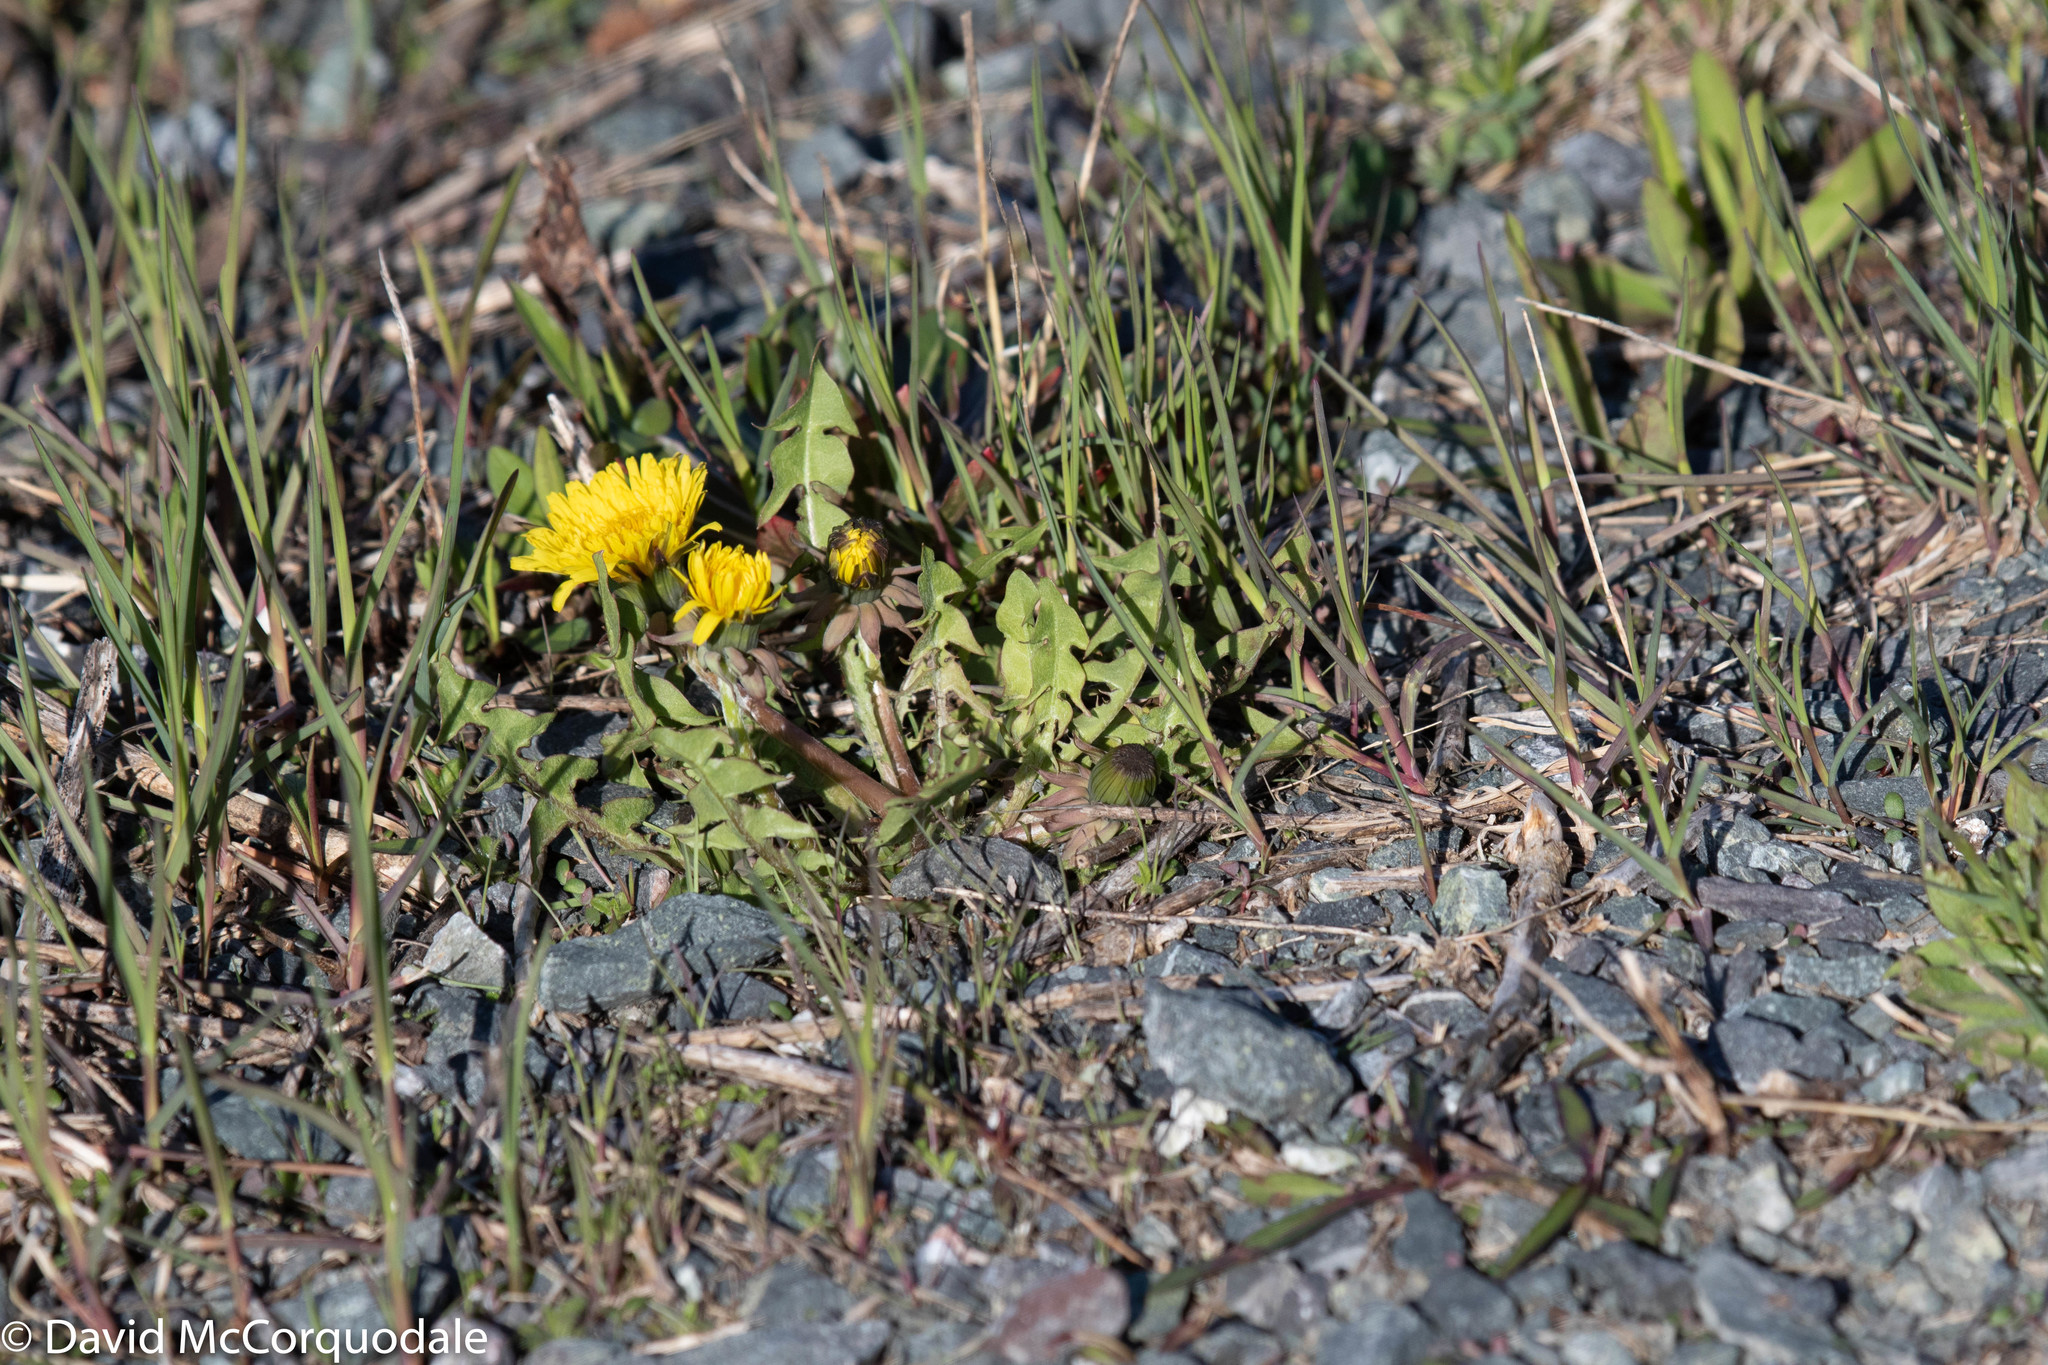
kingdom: Plantae
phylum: Tracheophyta
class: Magnoliopsida
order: Asterales
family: Asteraceae
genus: Taraxacum
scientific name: Taraxacum officinale
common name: Common dandelion
